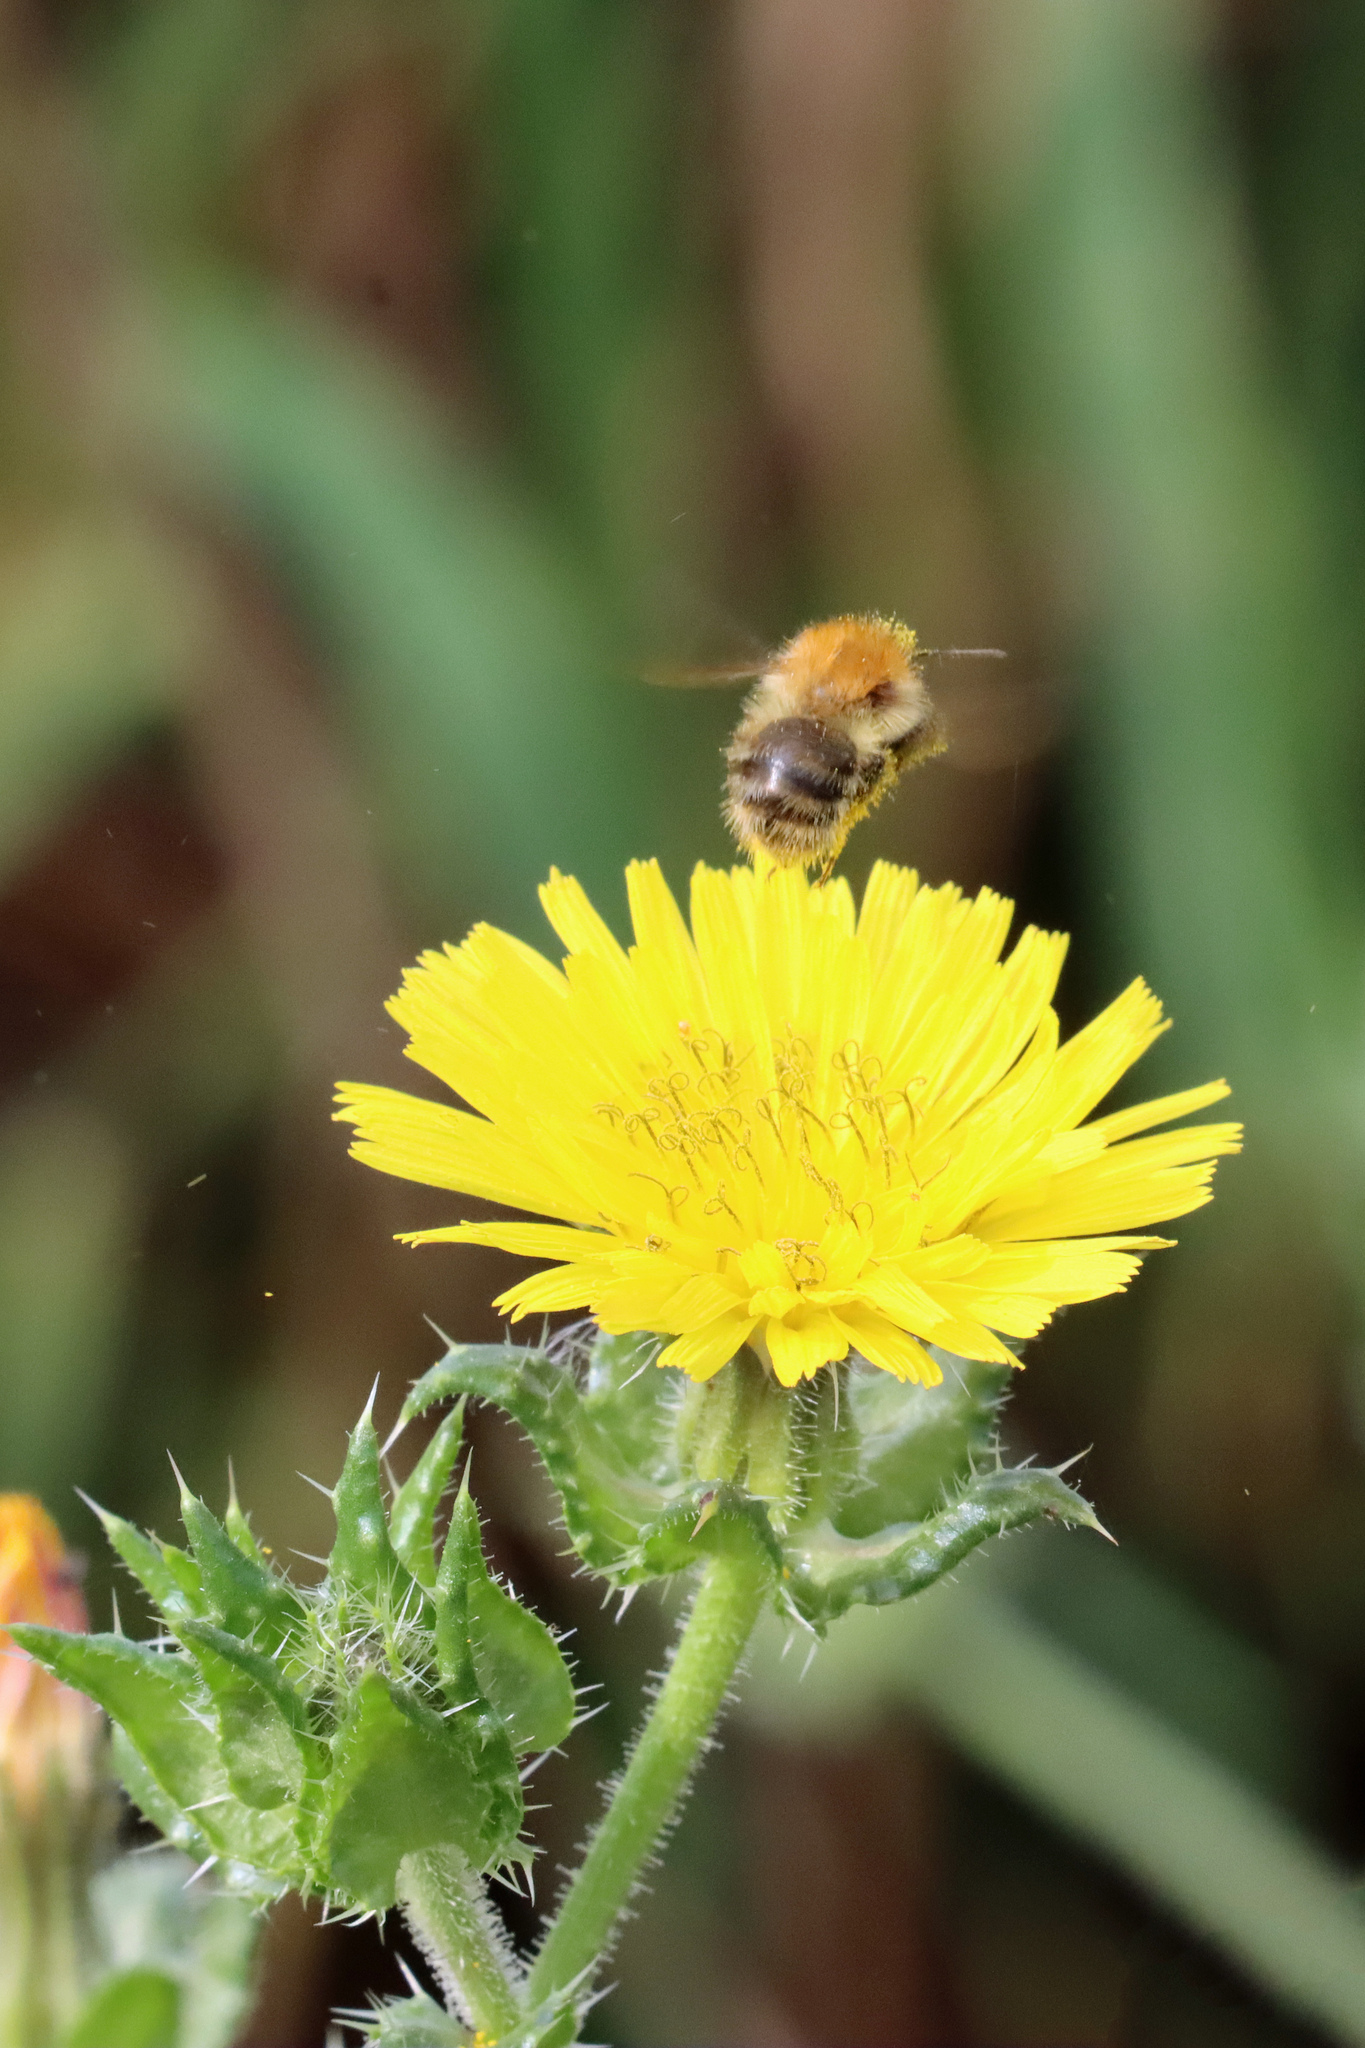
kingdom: Animalia
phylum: Arthropoda
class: Insecta
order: Hymenoptera
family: Apidae
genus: Bombus
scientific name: Bombus pascuorum
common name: Common carder bee
